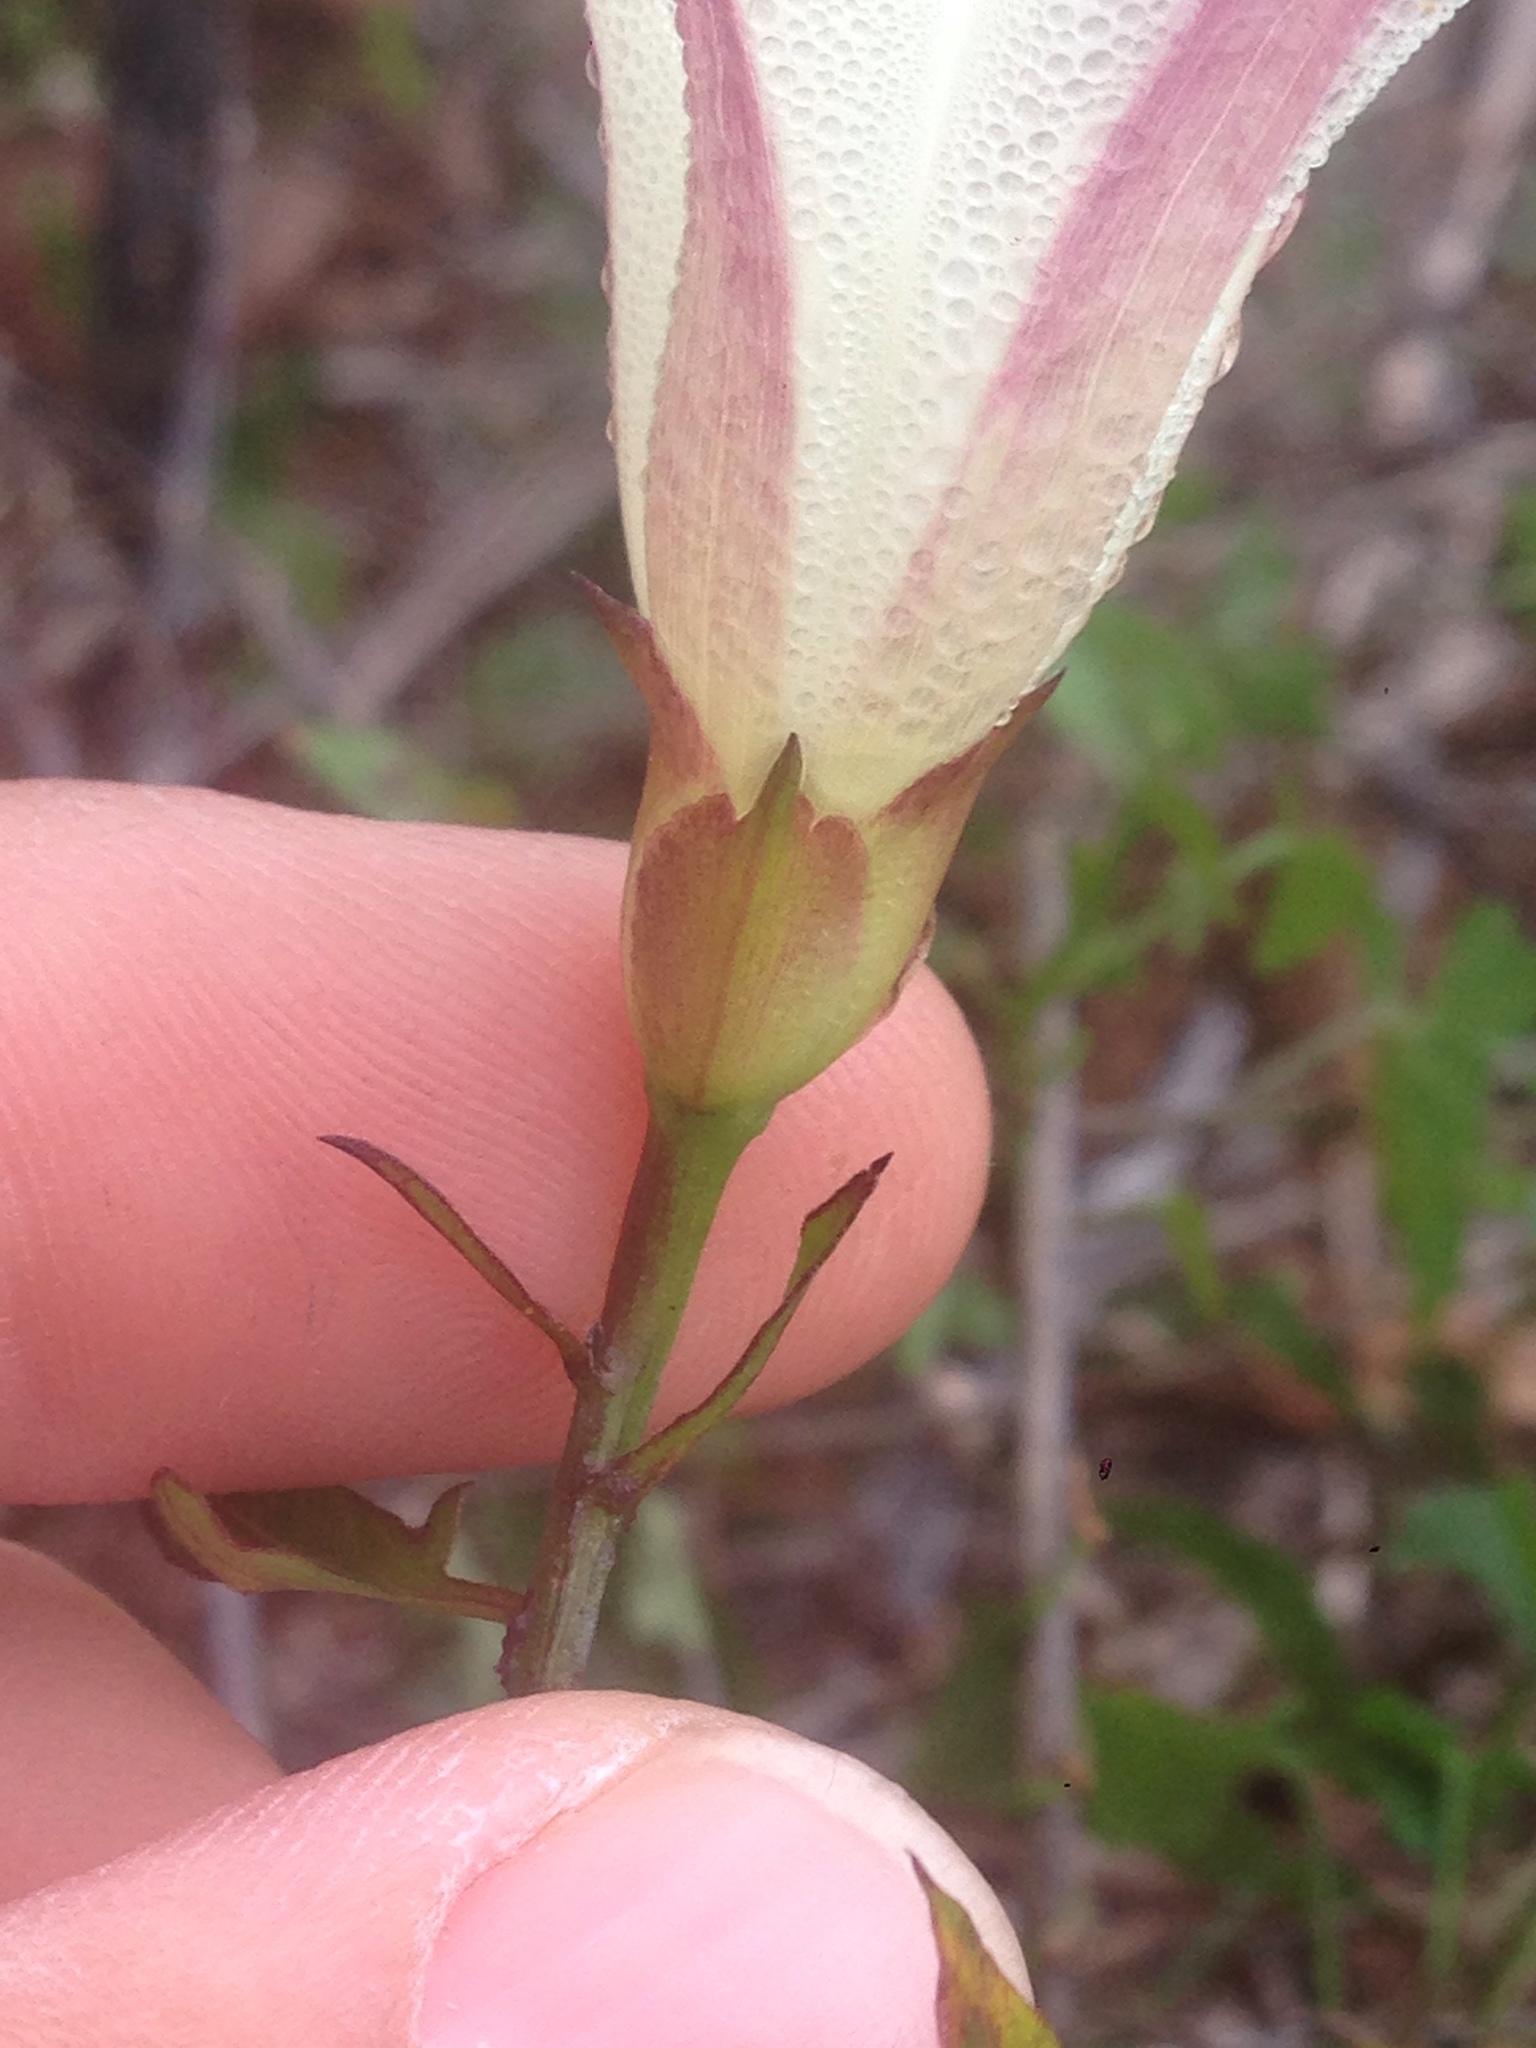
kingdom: Plantae
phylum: Tracheophyta
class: Magnoliopsida
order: Solanales
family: Convolvulaceae
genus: Calystegia
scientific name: Calystegia purpurata
